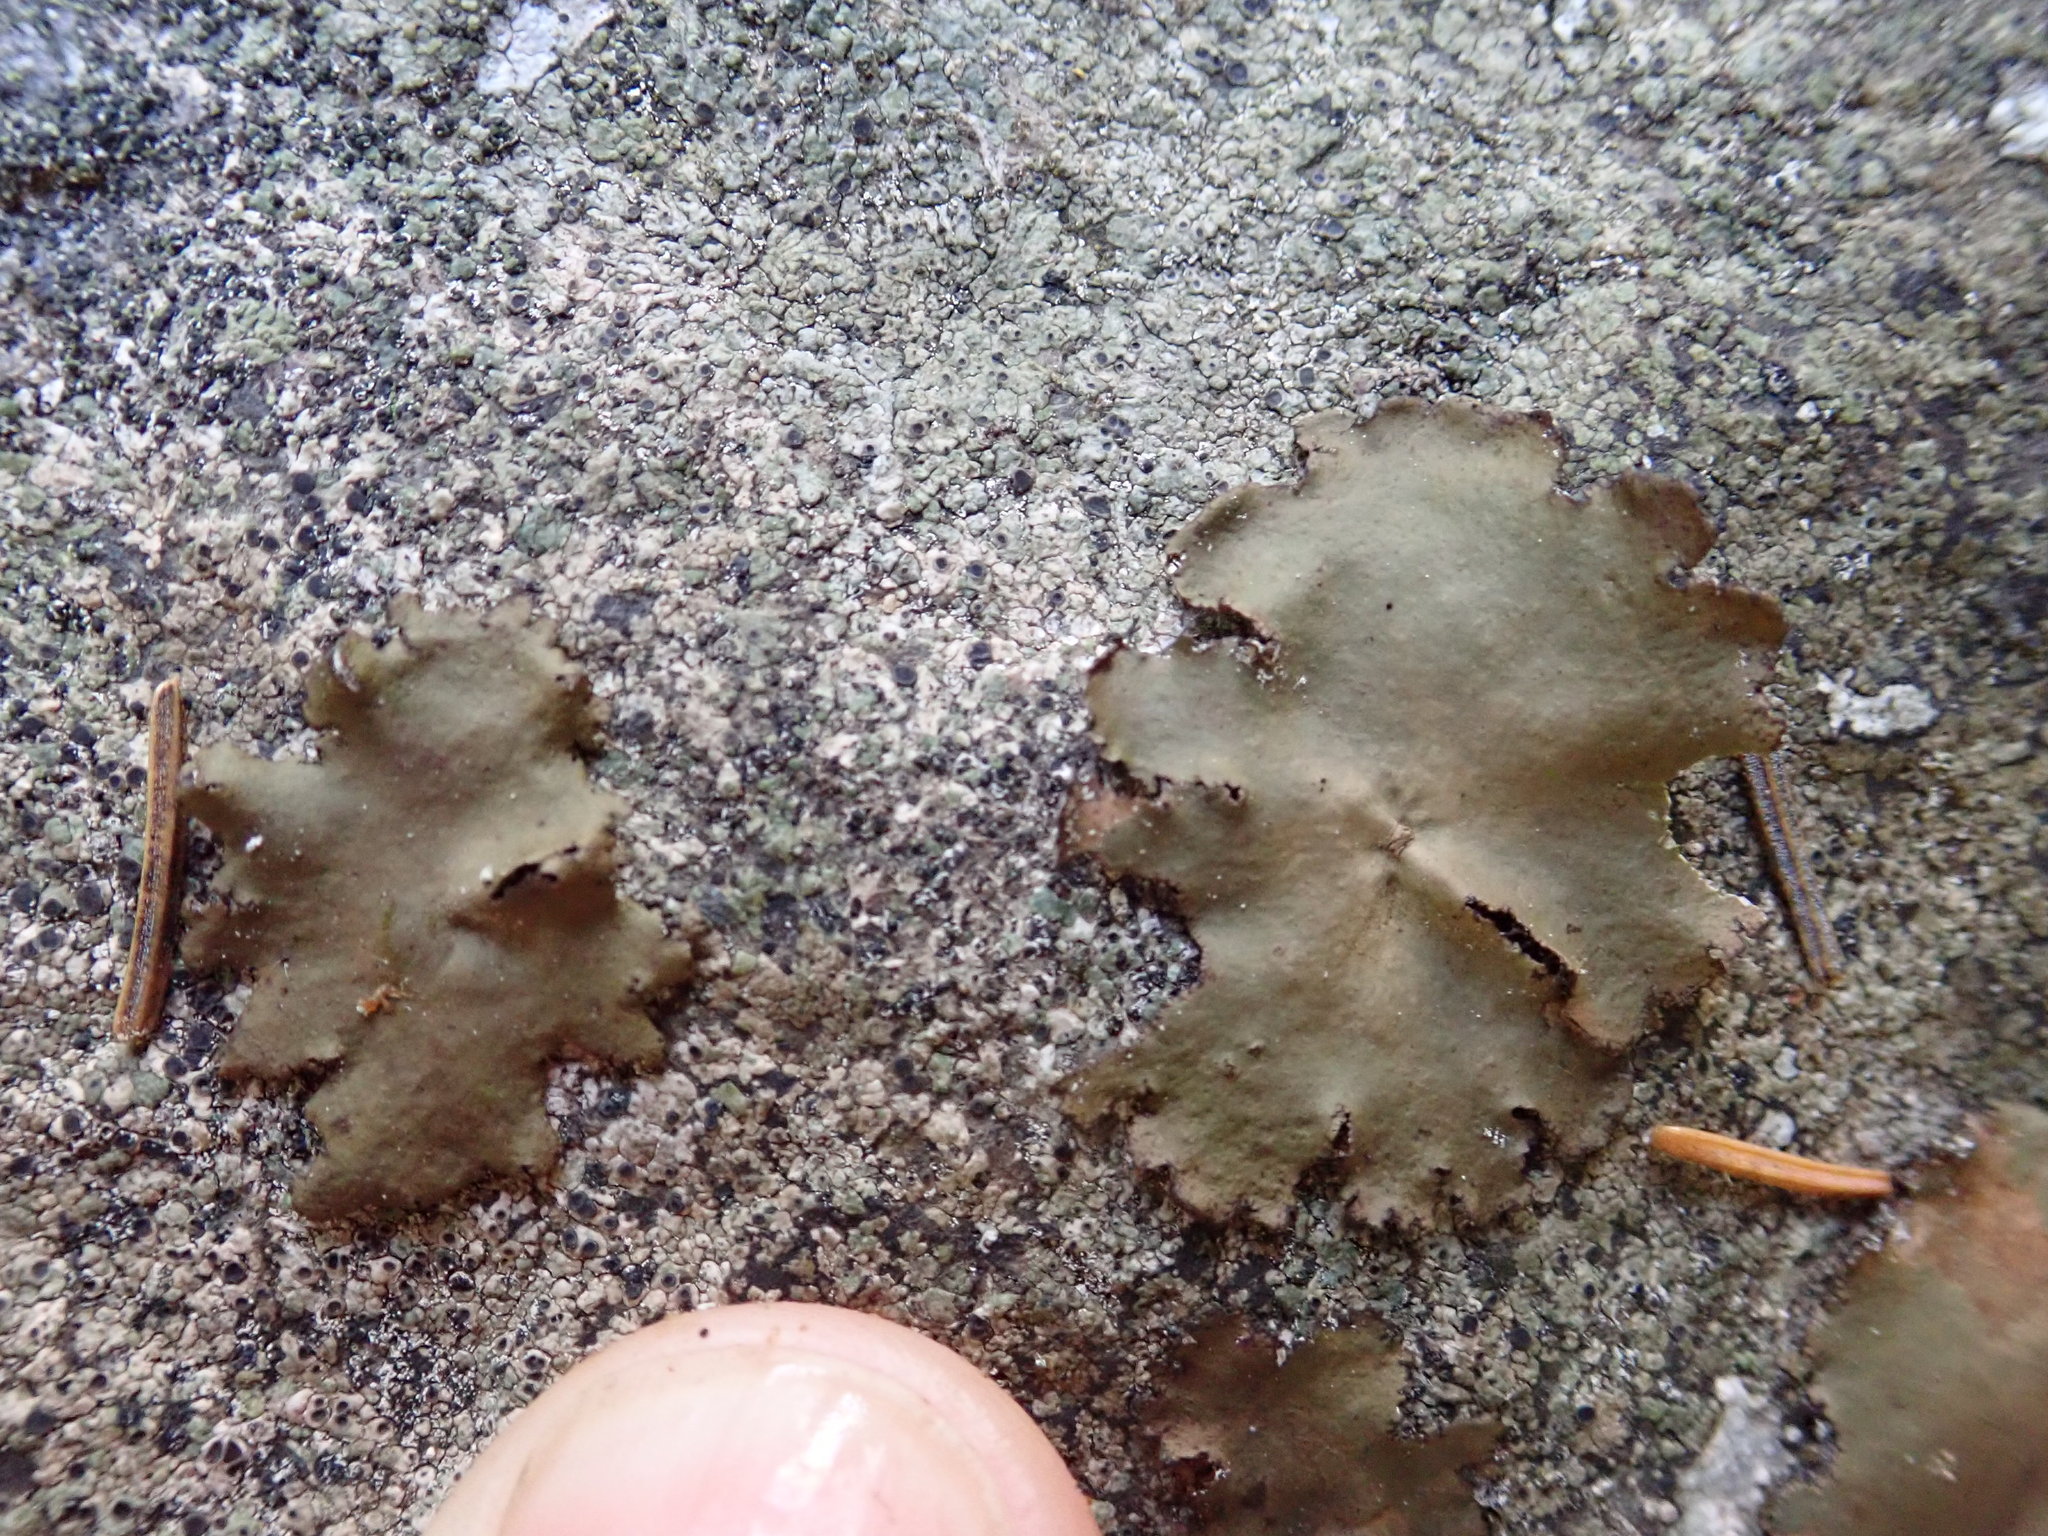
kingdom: Fungi
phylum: Ascomycota
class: Lecanoromycetes
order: Umbilicariales
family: Umbilicariaceae
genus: Umbilicaria
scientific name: Umbilicaria mammulata
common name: Smooth rock tripe
